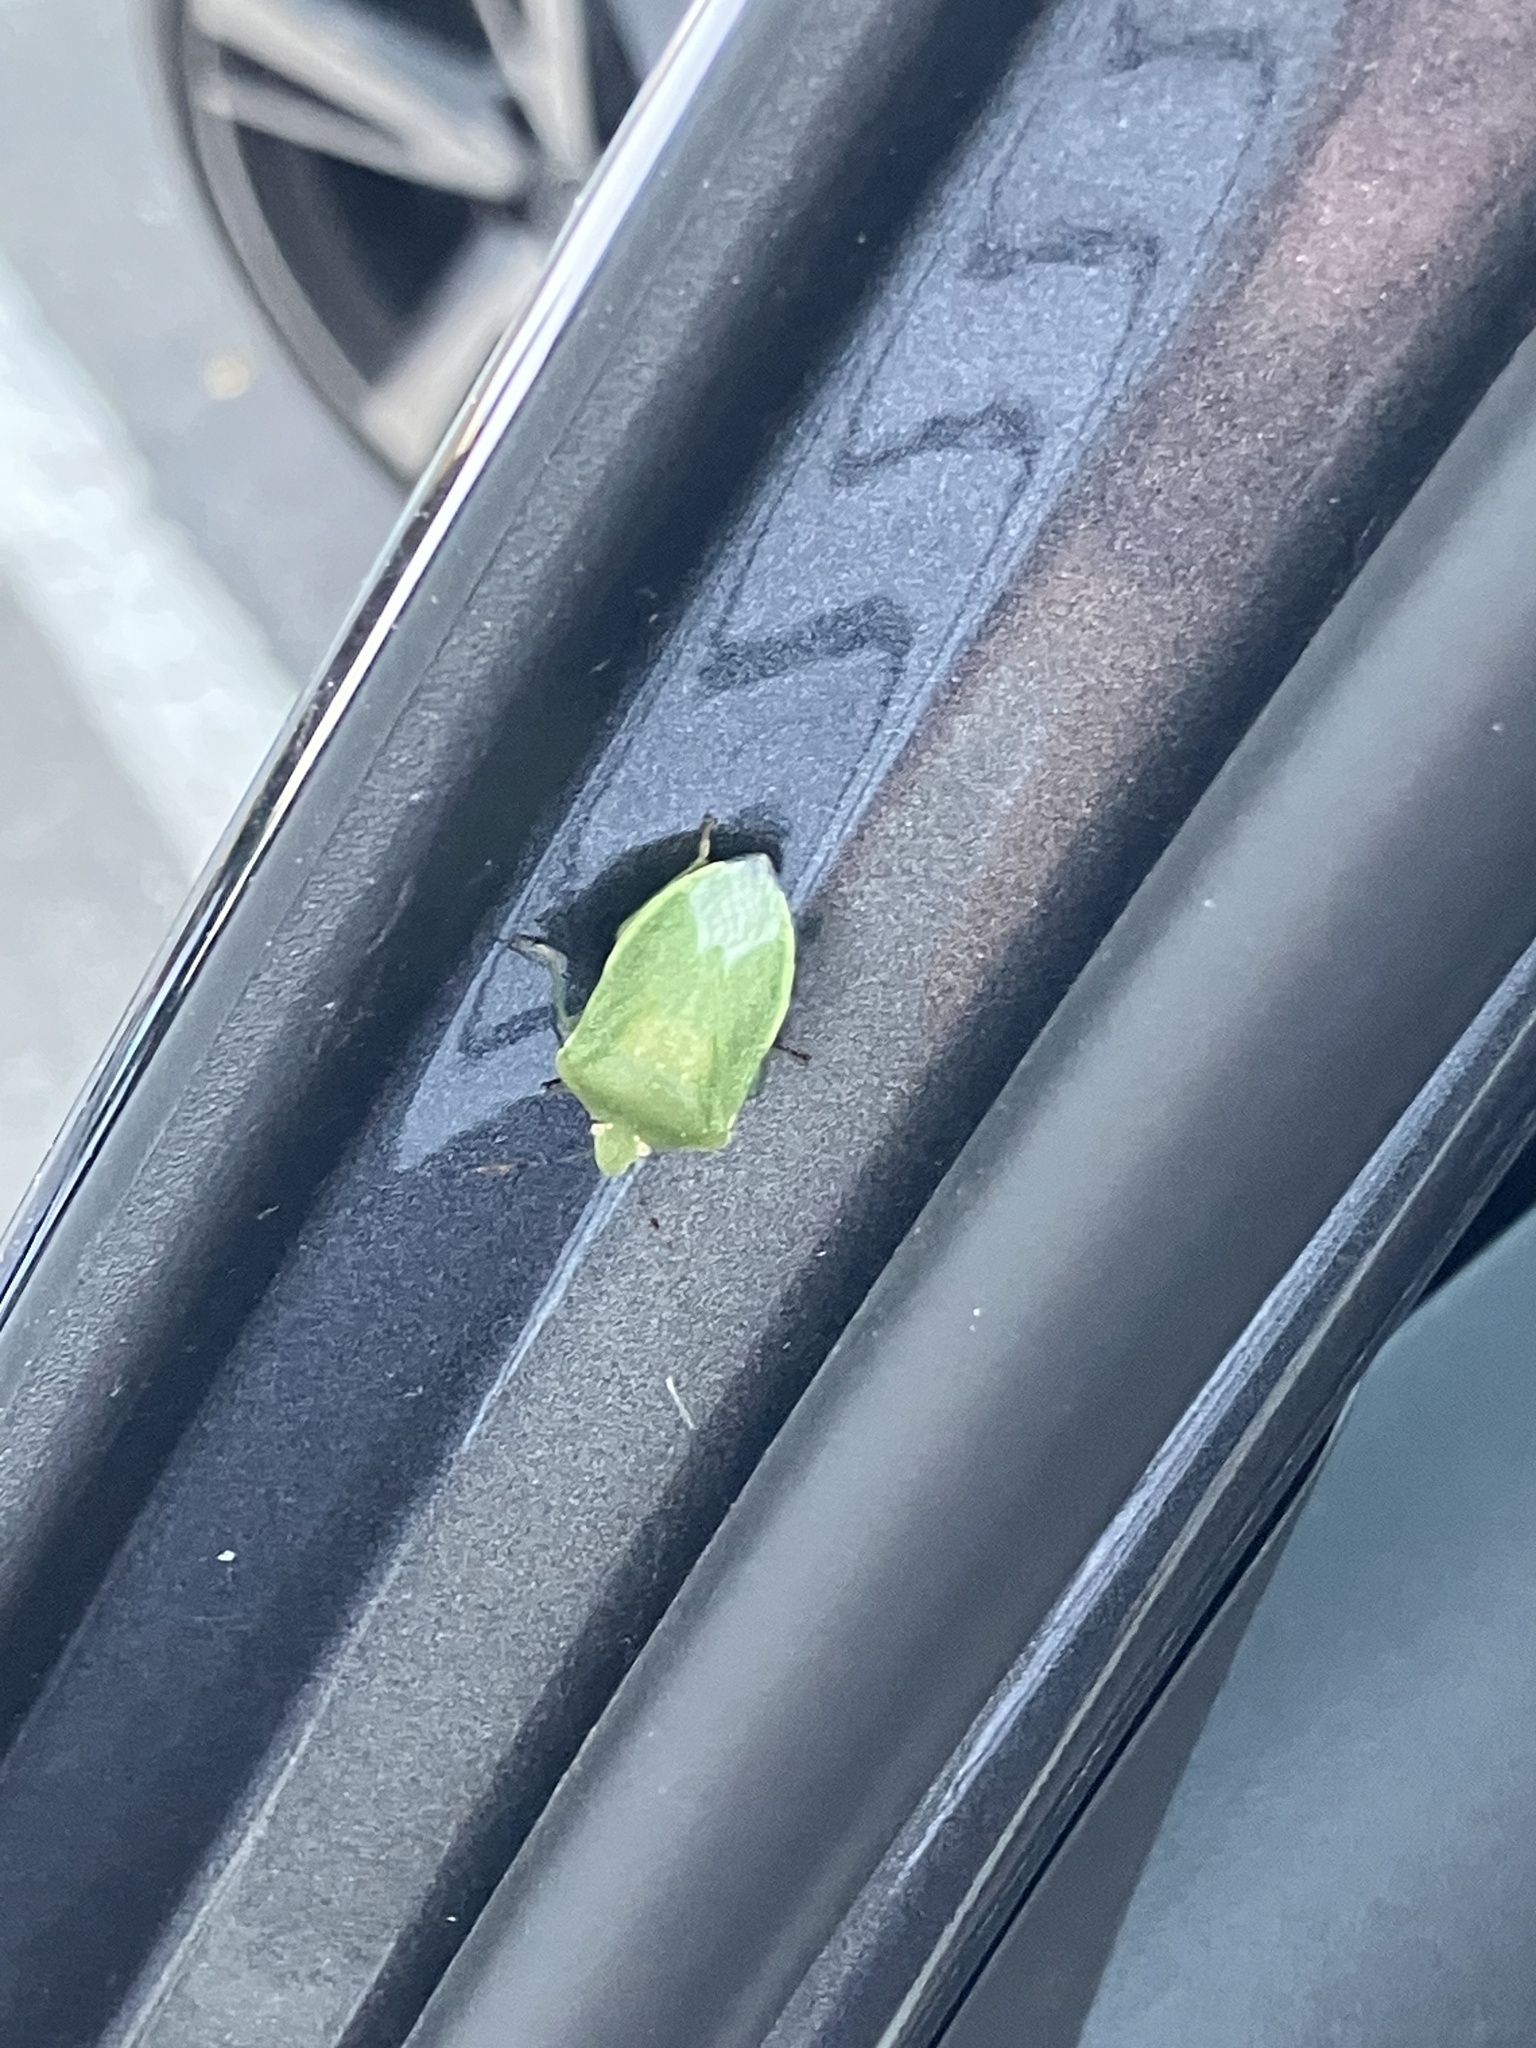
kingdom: Animalia
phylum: Arthropoda
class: Insecta
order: Hemiptera
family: Pentatomidae
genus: Nezara
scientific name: Nezara viridula
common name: Southern green stink bug
